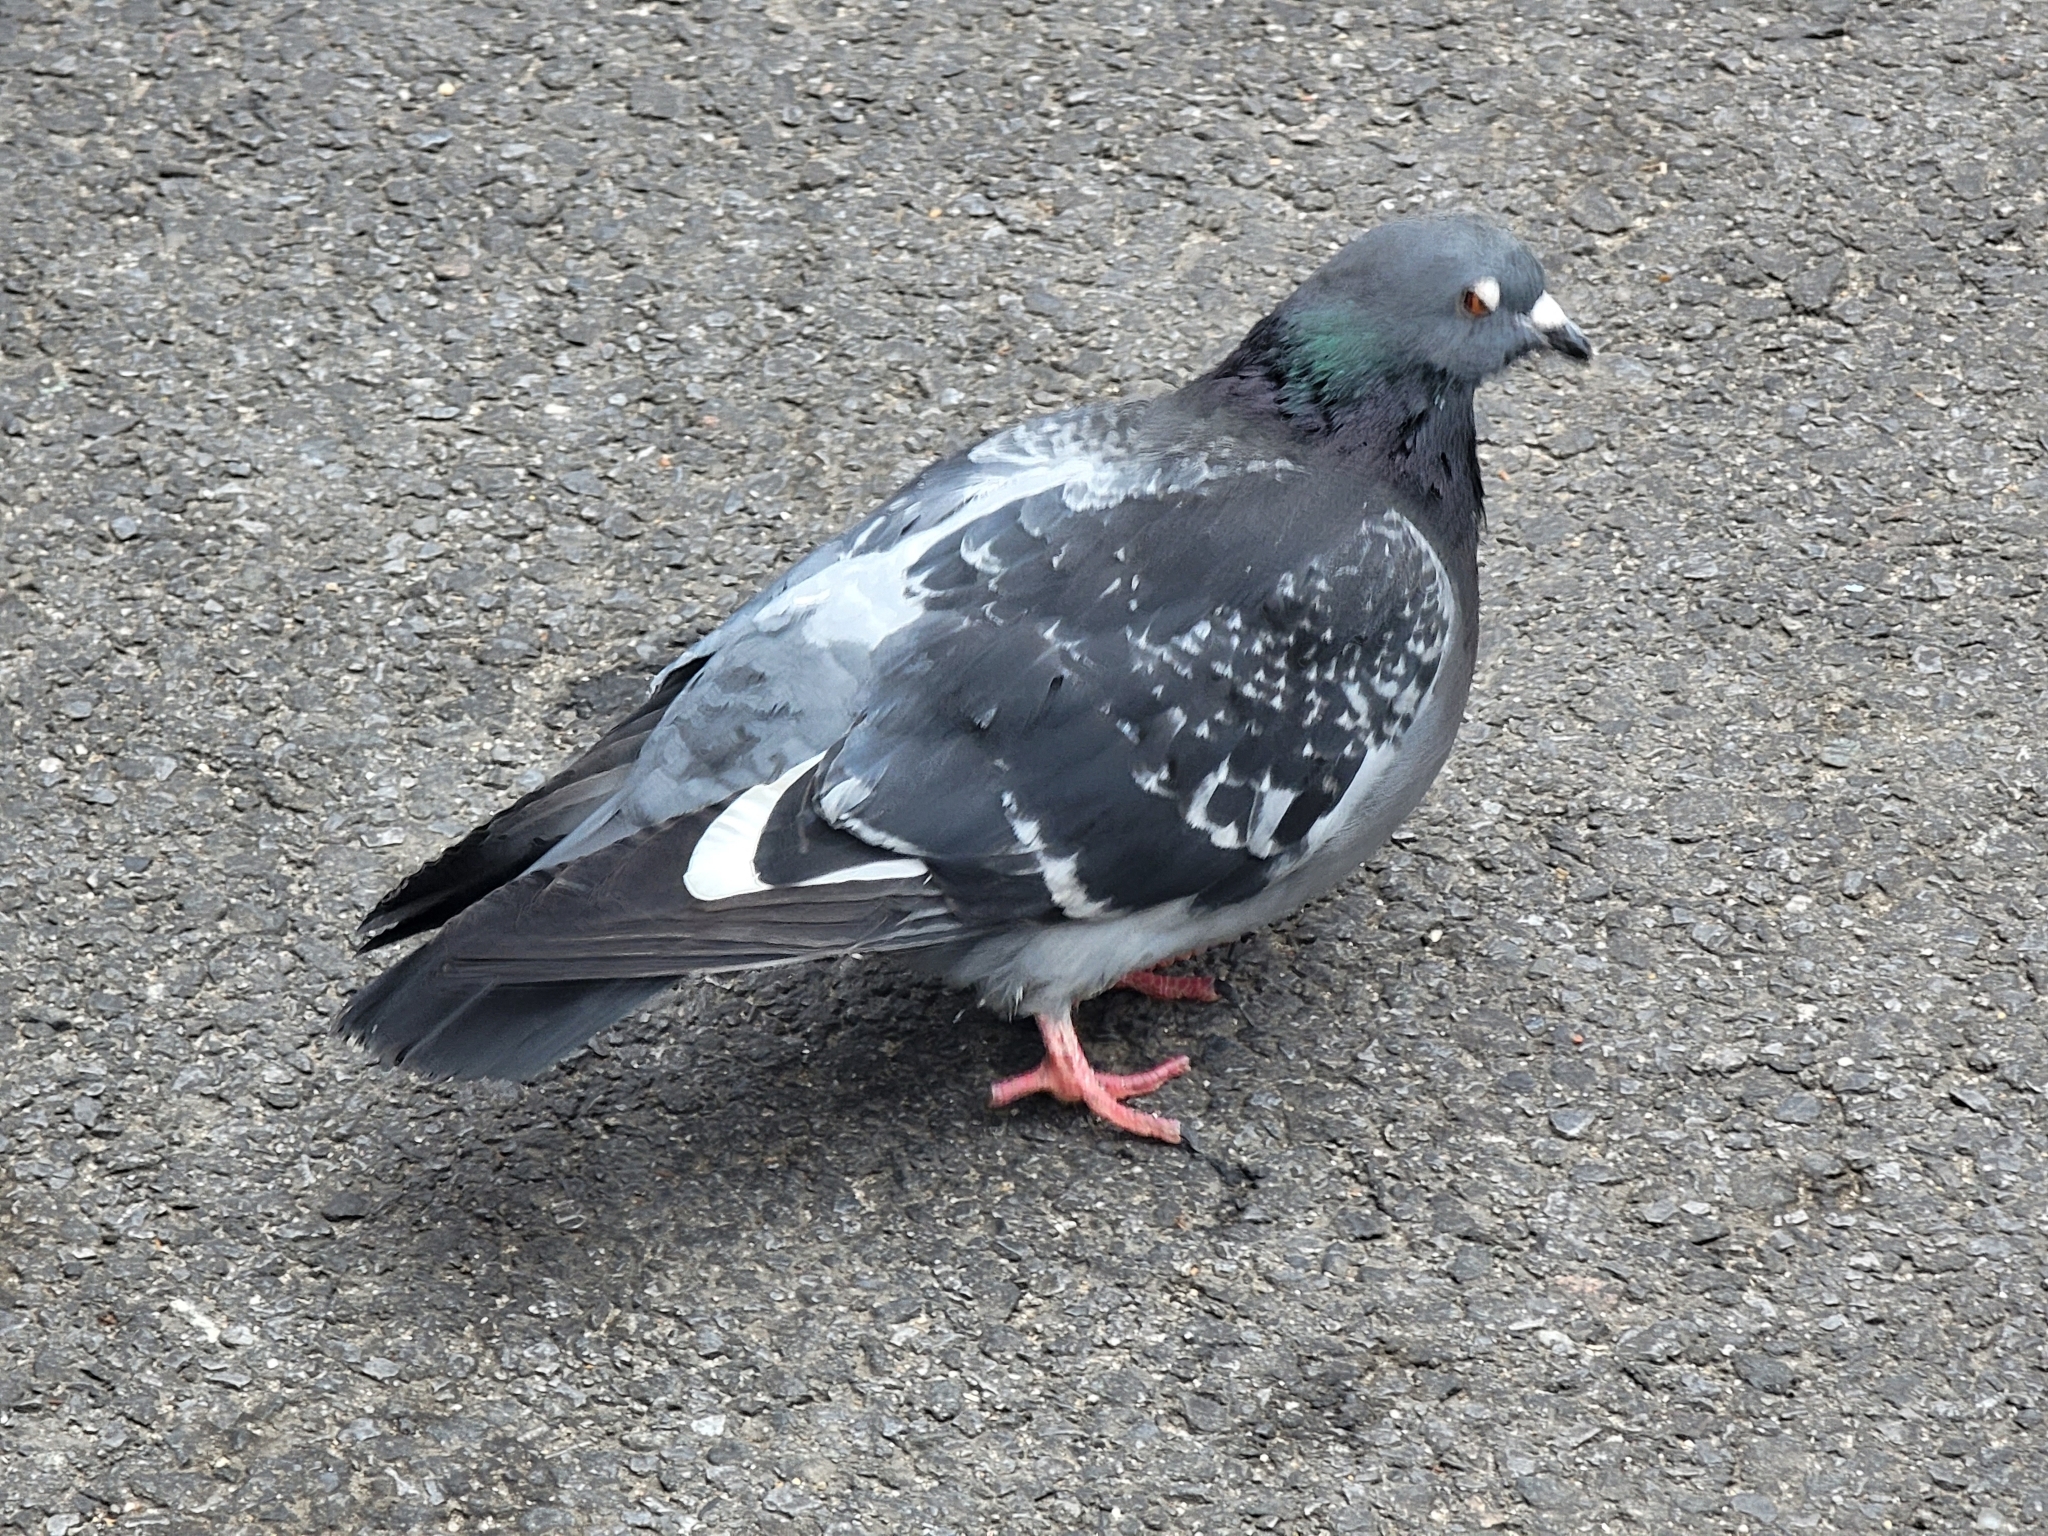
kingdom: Animalia
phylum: Chordata
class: Aves
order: Columbiformes
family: Columbidae
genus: Columba
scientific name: Columba livia
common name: Rock pigeon
